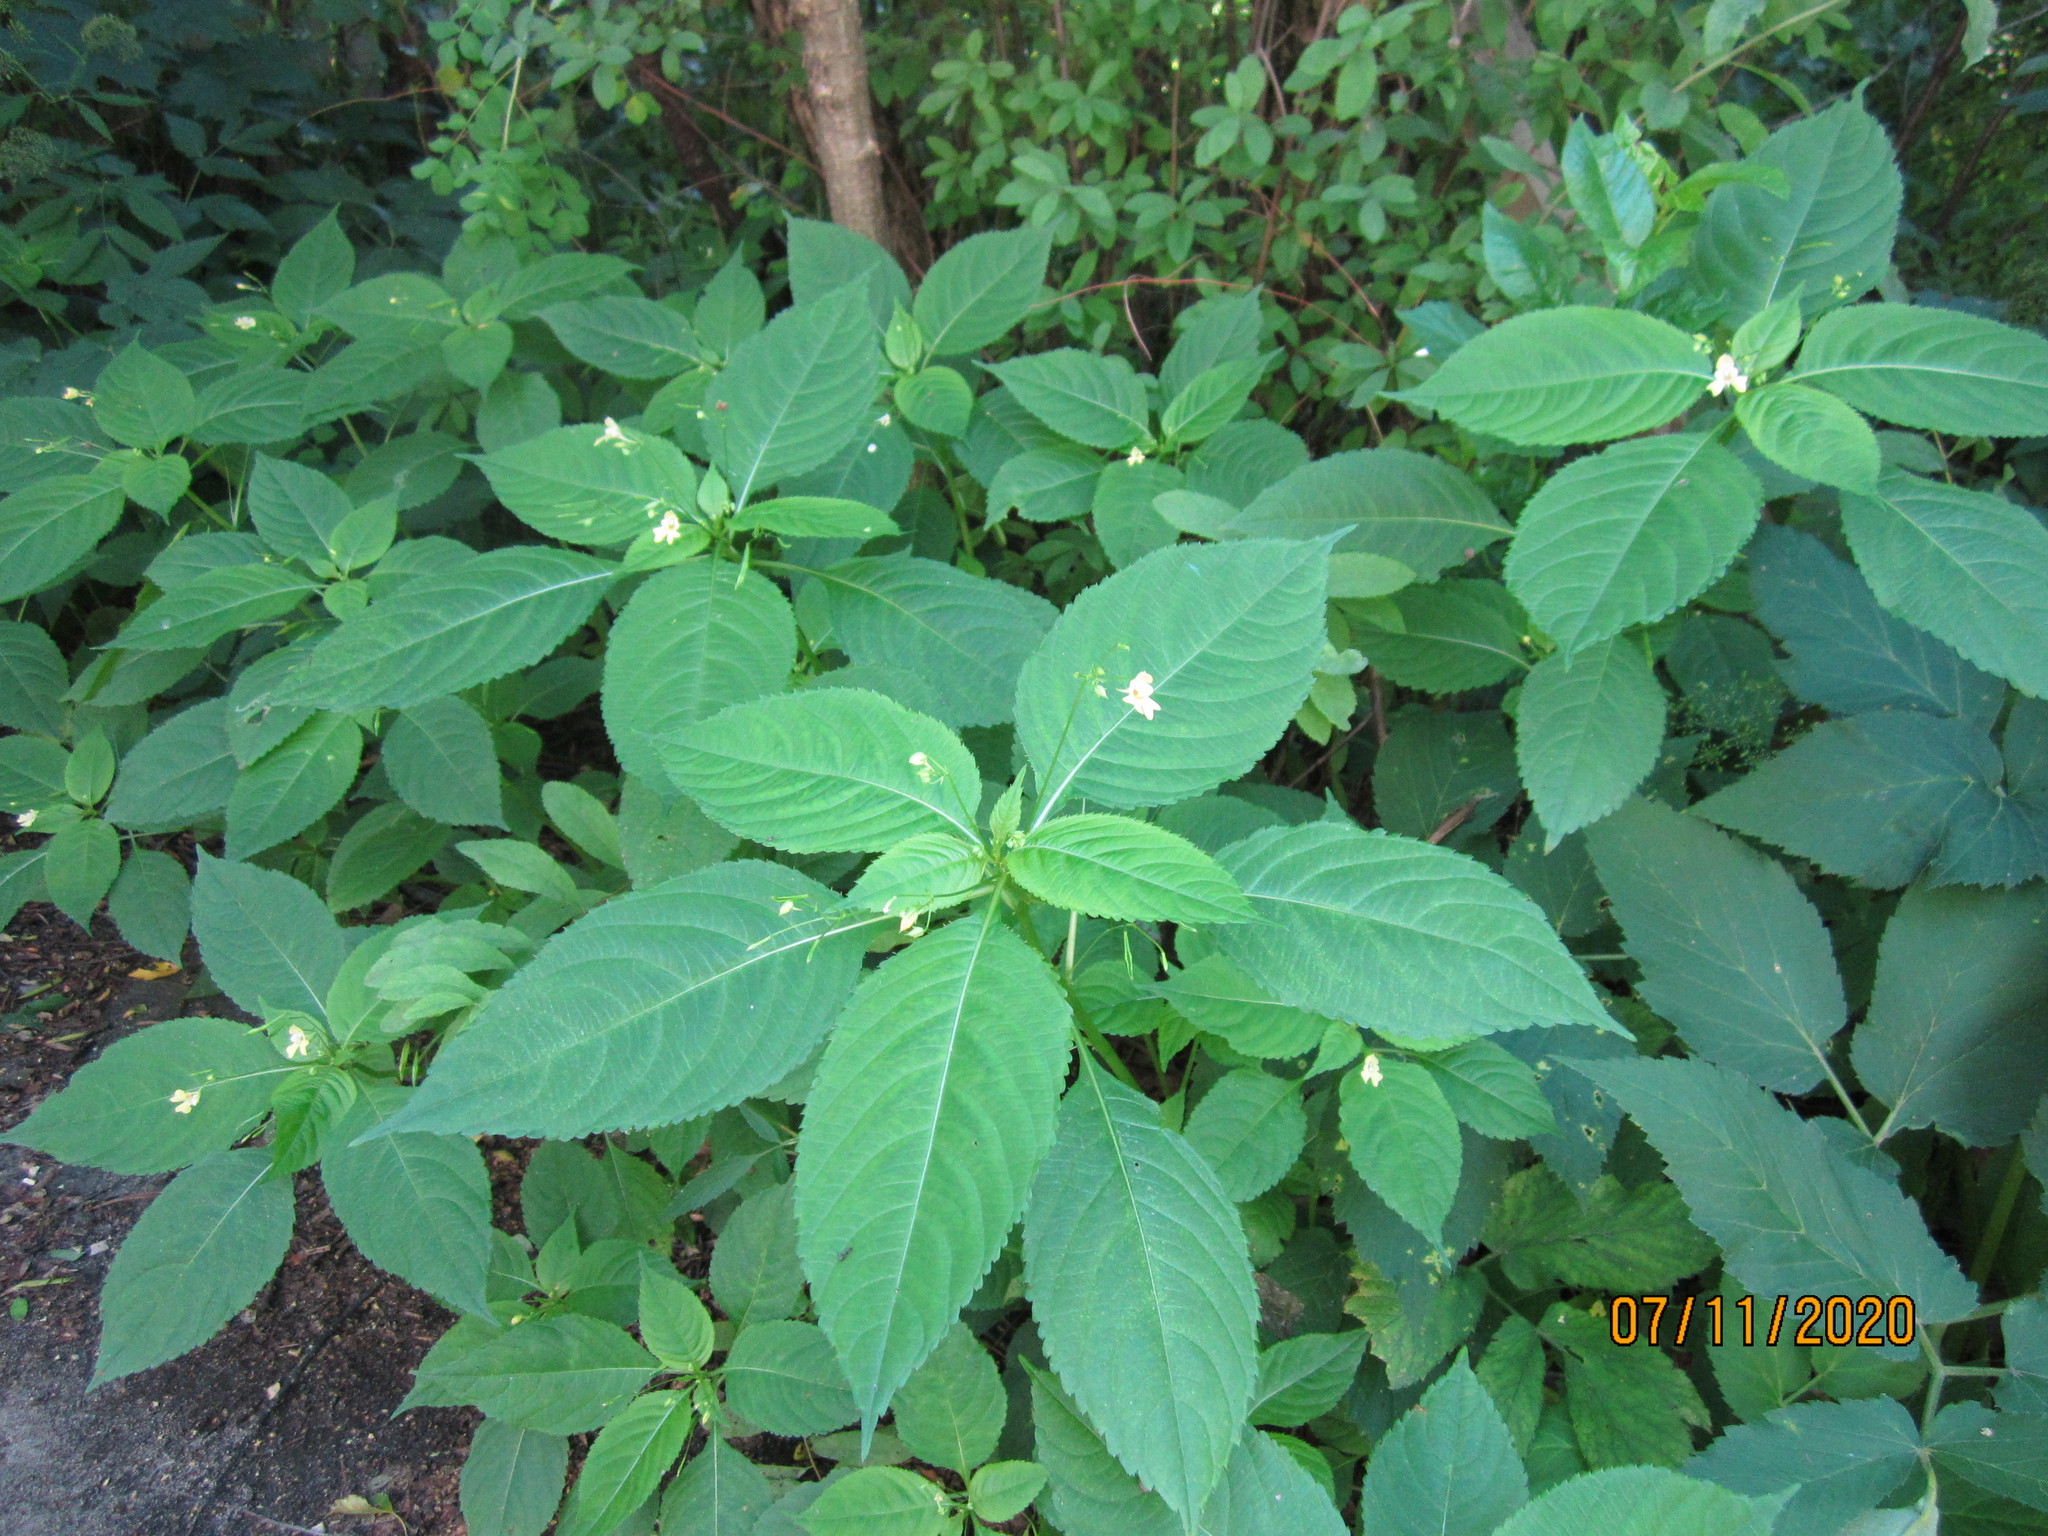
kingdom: Plantae
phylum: Tracheophyta
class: Magnoliopsida
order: Ericales
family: Balsaminaceae
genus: Impatiens
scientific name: Impatiens parviflora
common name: Small balsam
